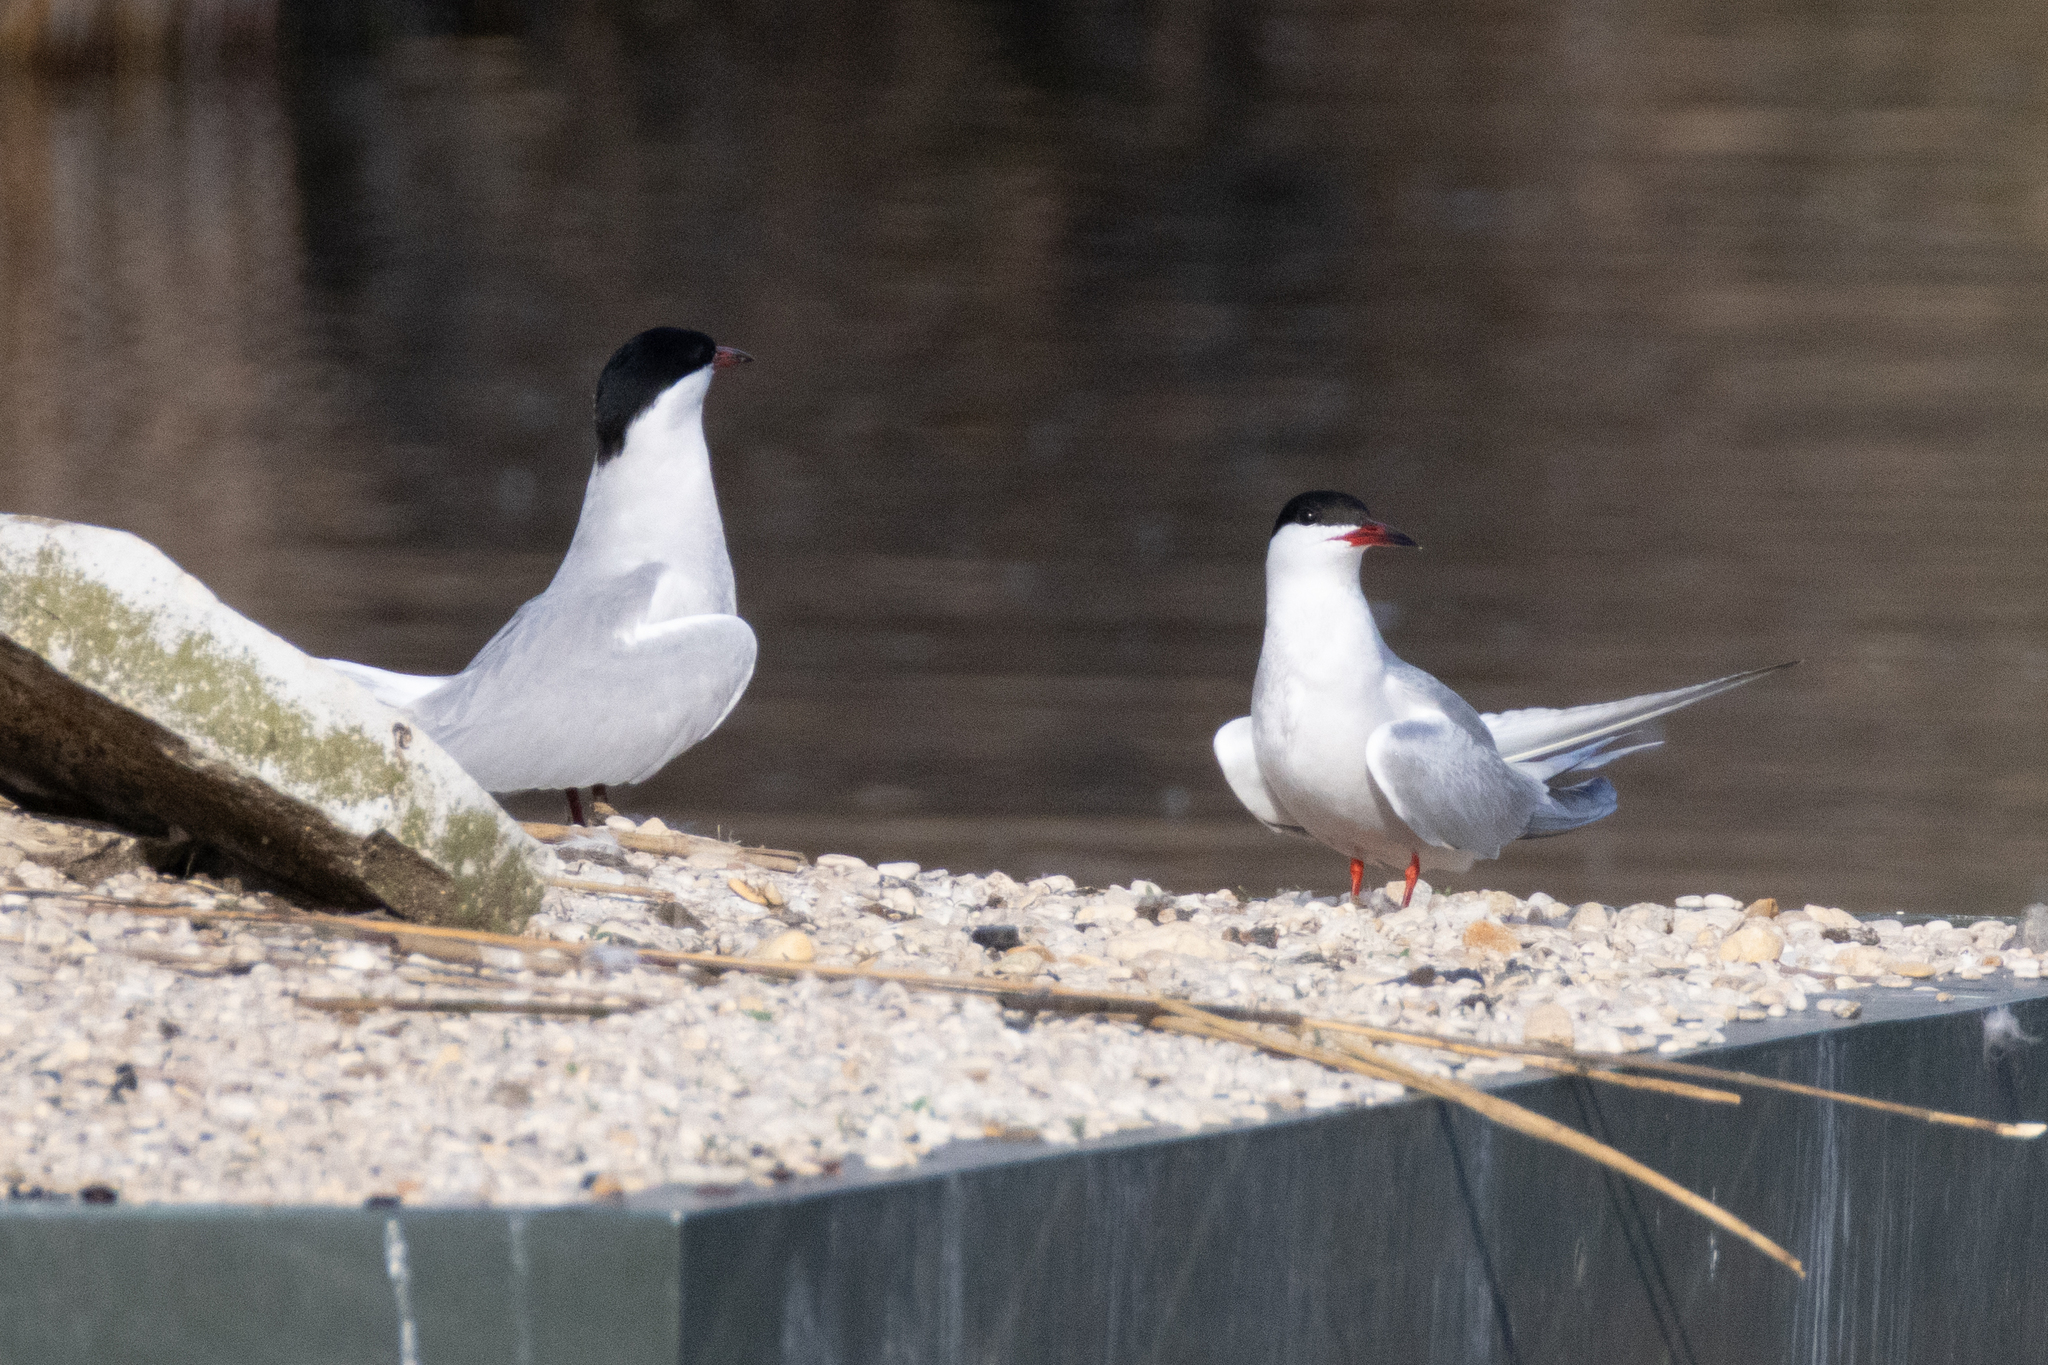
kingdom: Animalia
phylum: Chordata
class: Aves
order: Charadriiformes
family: Laridae
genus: Sterna
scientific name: Sterna hirundo
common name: Common tern
